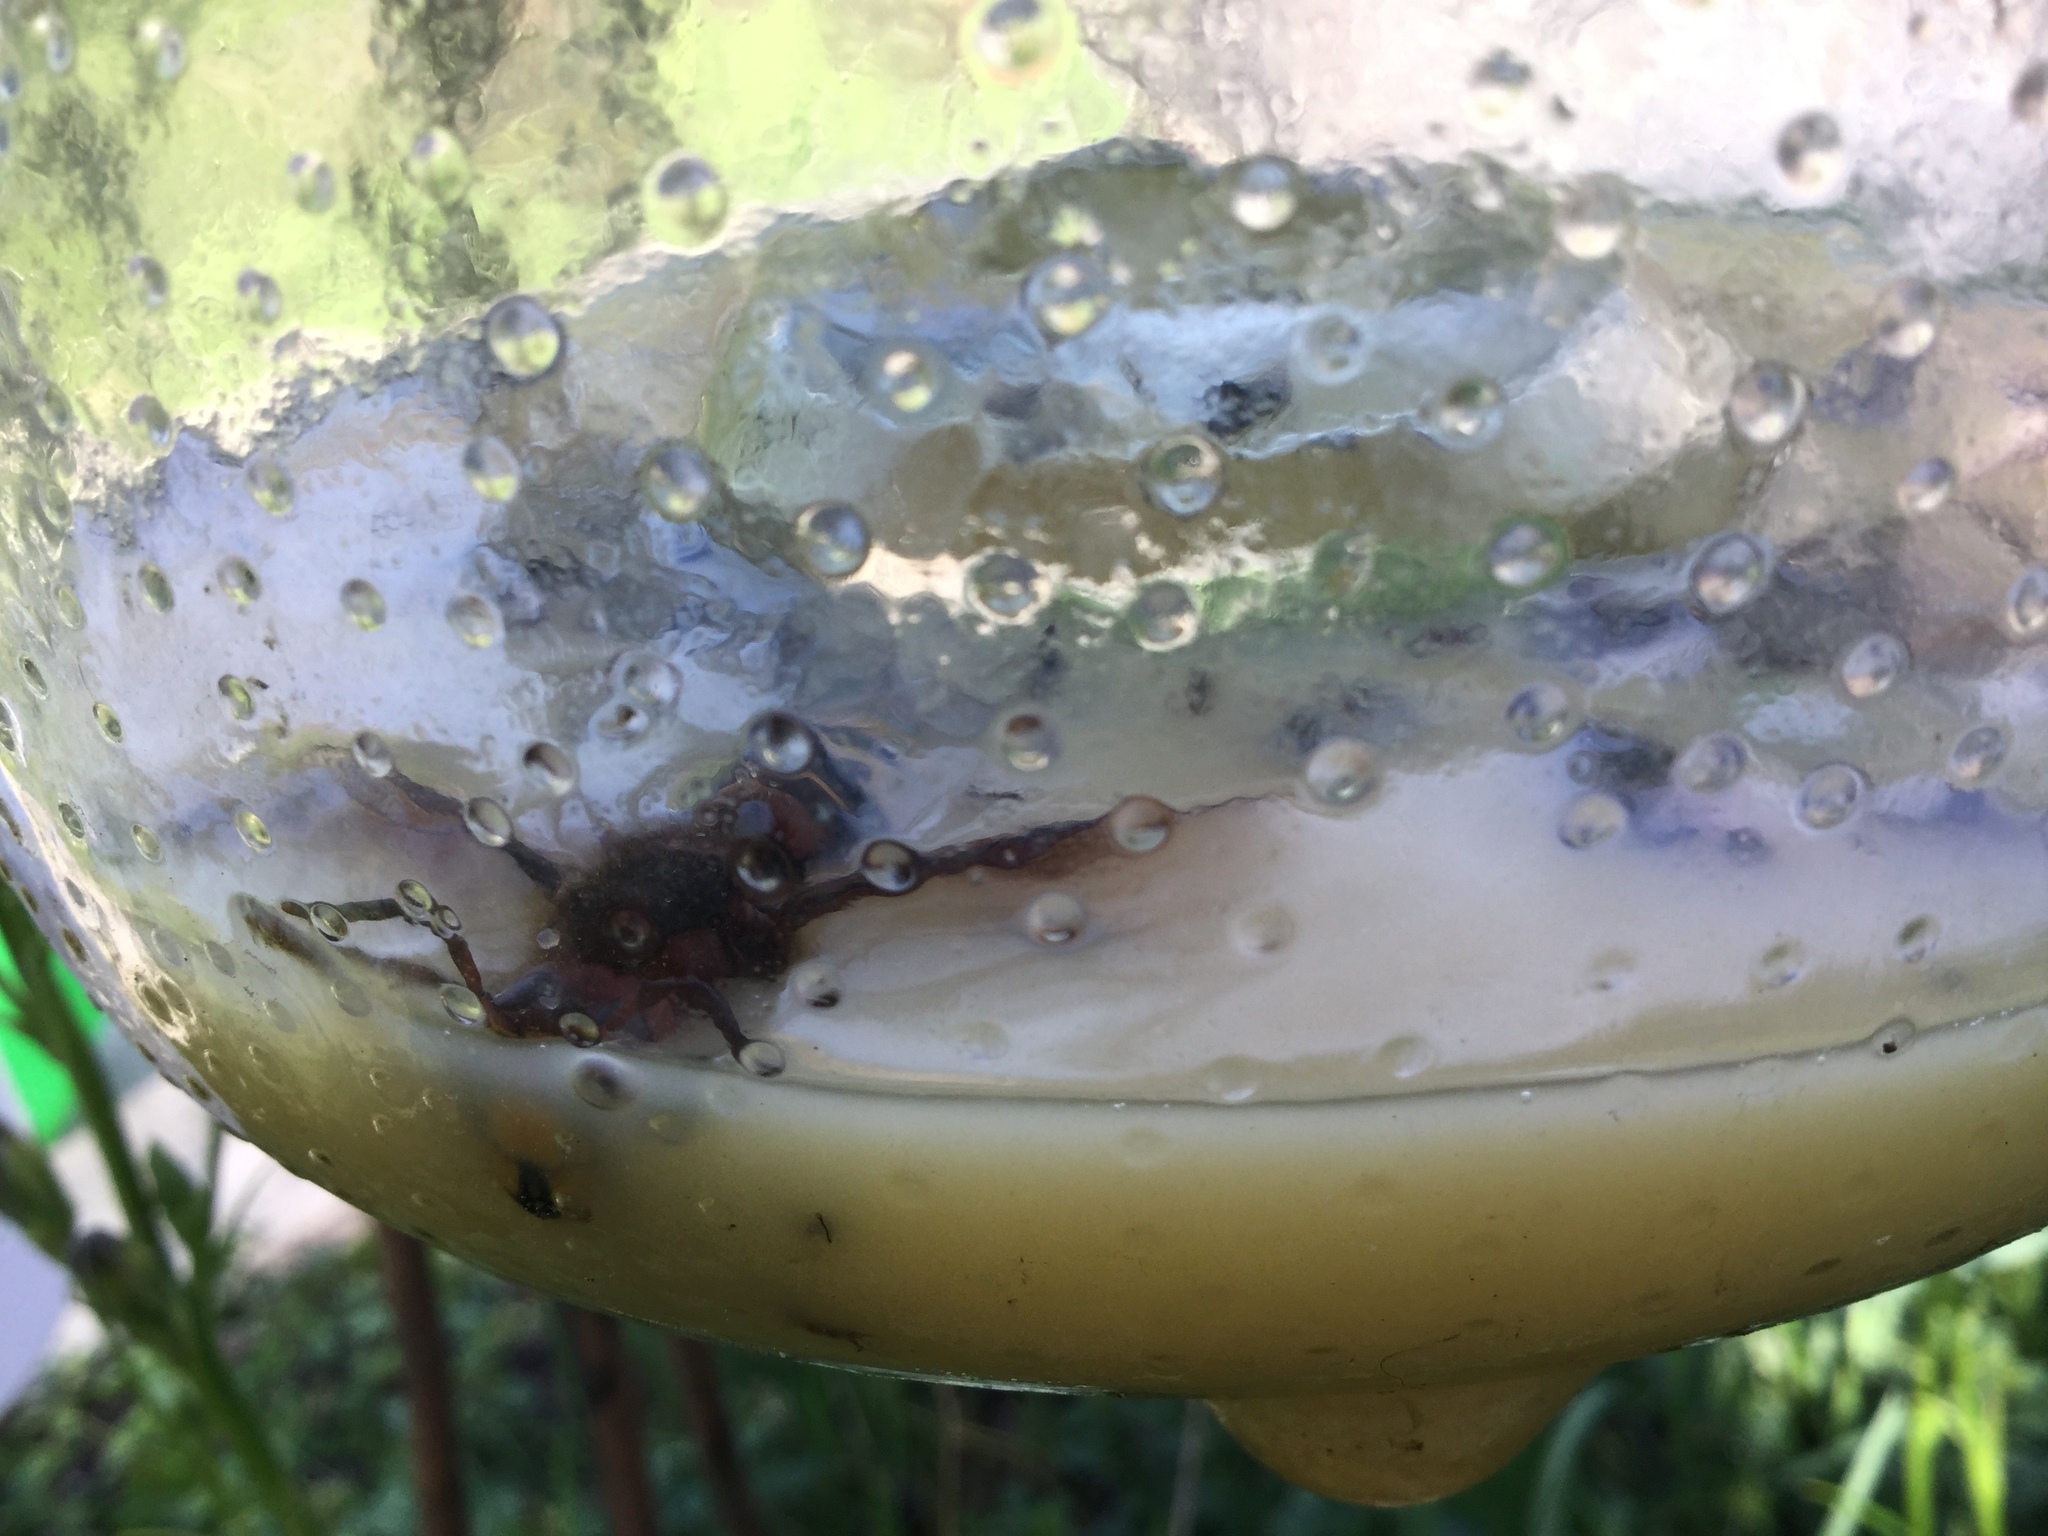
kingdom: Animalia
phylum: Arthropoda
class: Insecta
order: Hymenoptera
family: Vespidae
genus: Vespa
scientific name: Vespa crabro
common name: Hornet
